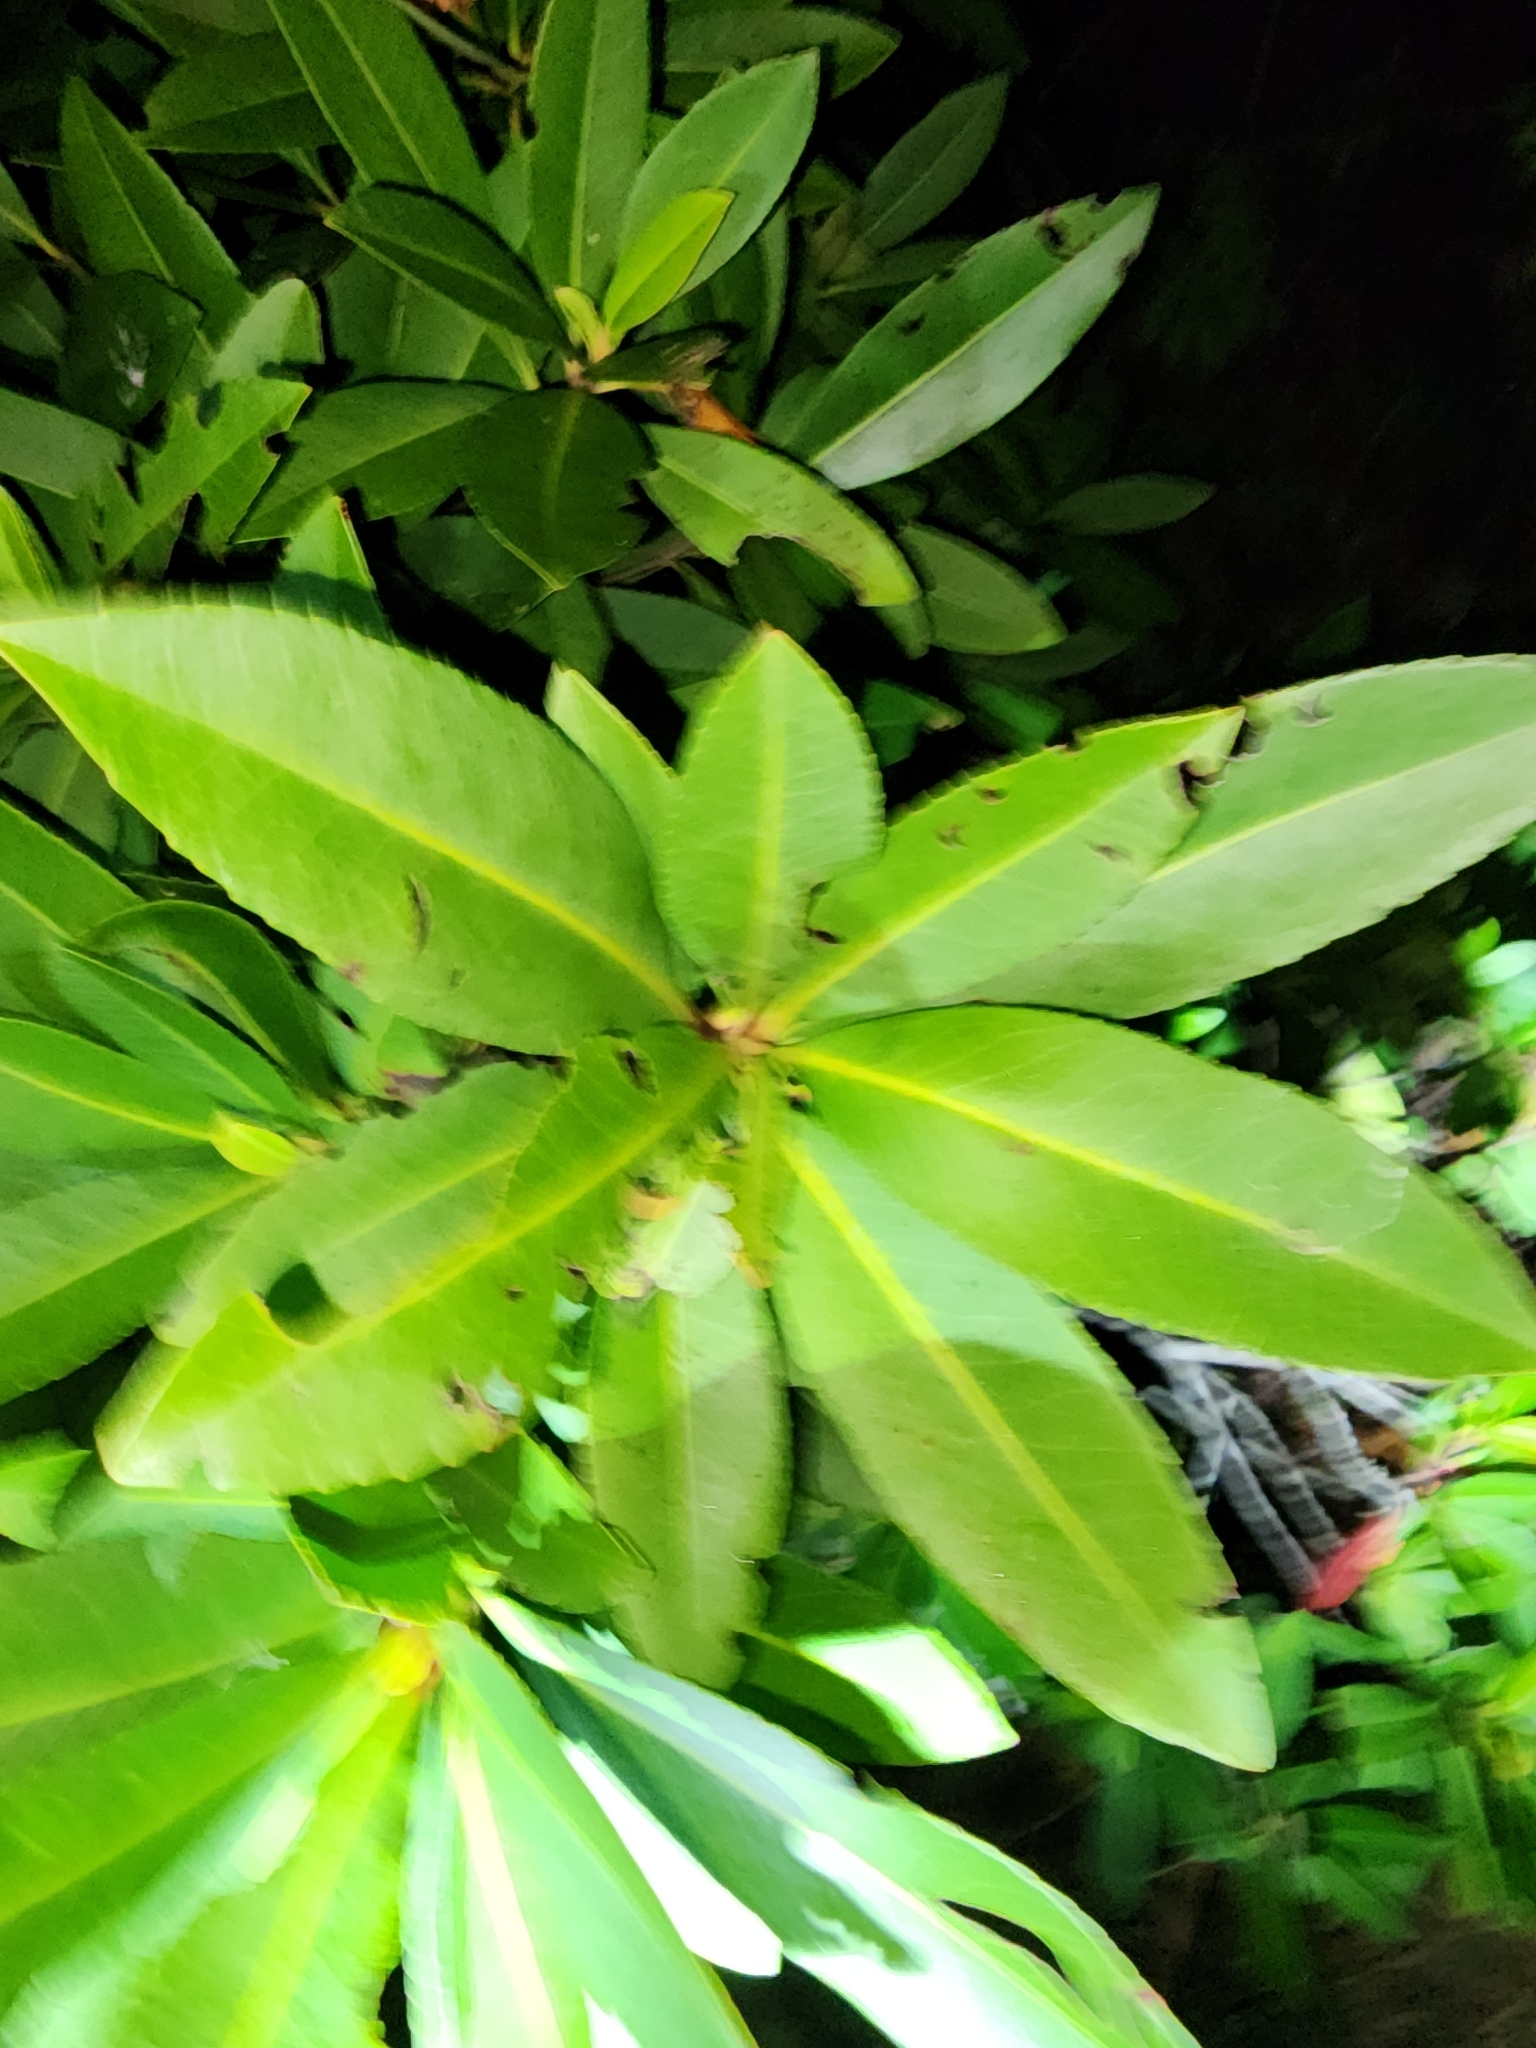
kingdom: Plantae
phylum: Tracheophyta
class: Magnoliopsida
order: Ericales
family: Theaceae
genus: Gordonia
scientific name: Gordonia lasianthus
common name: Loblolly bay
